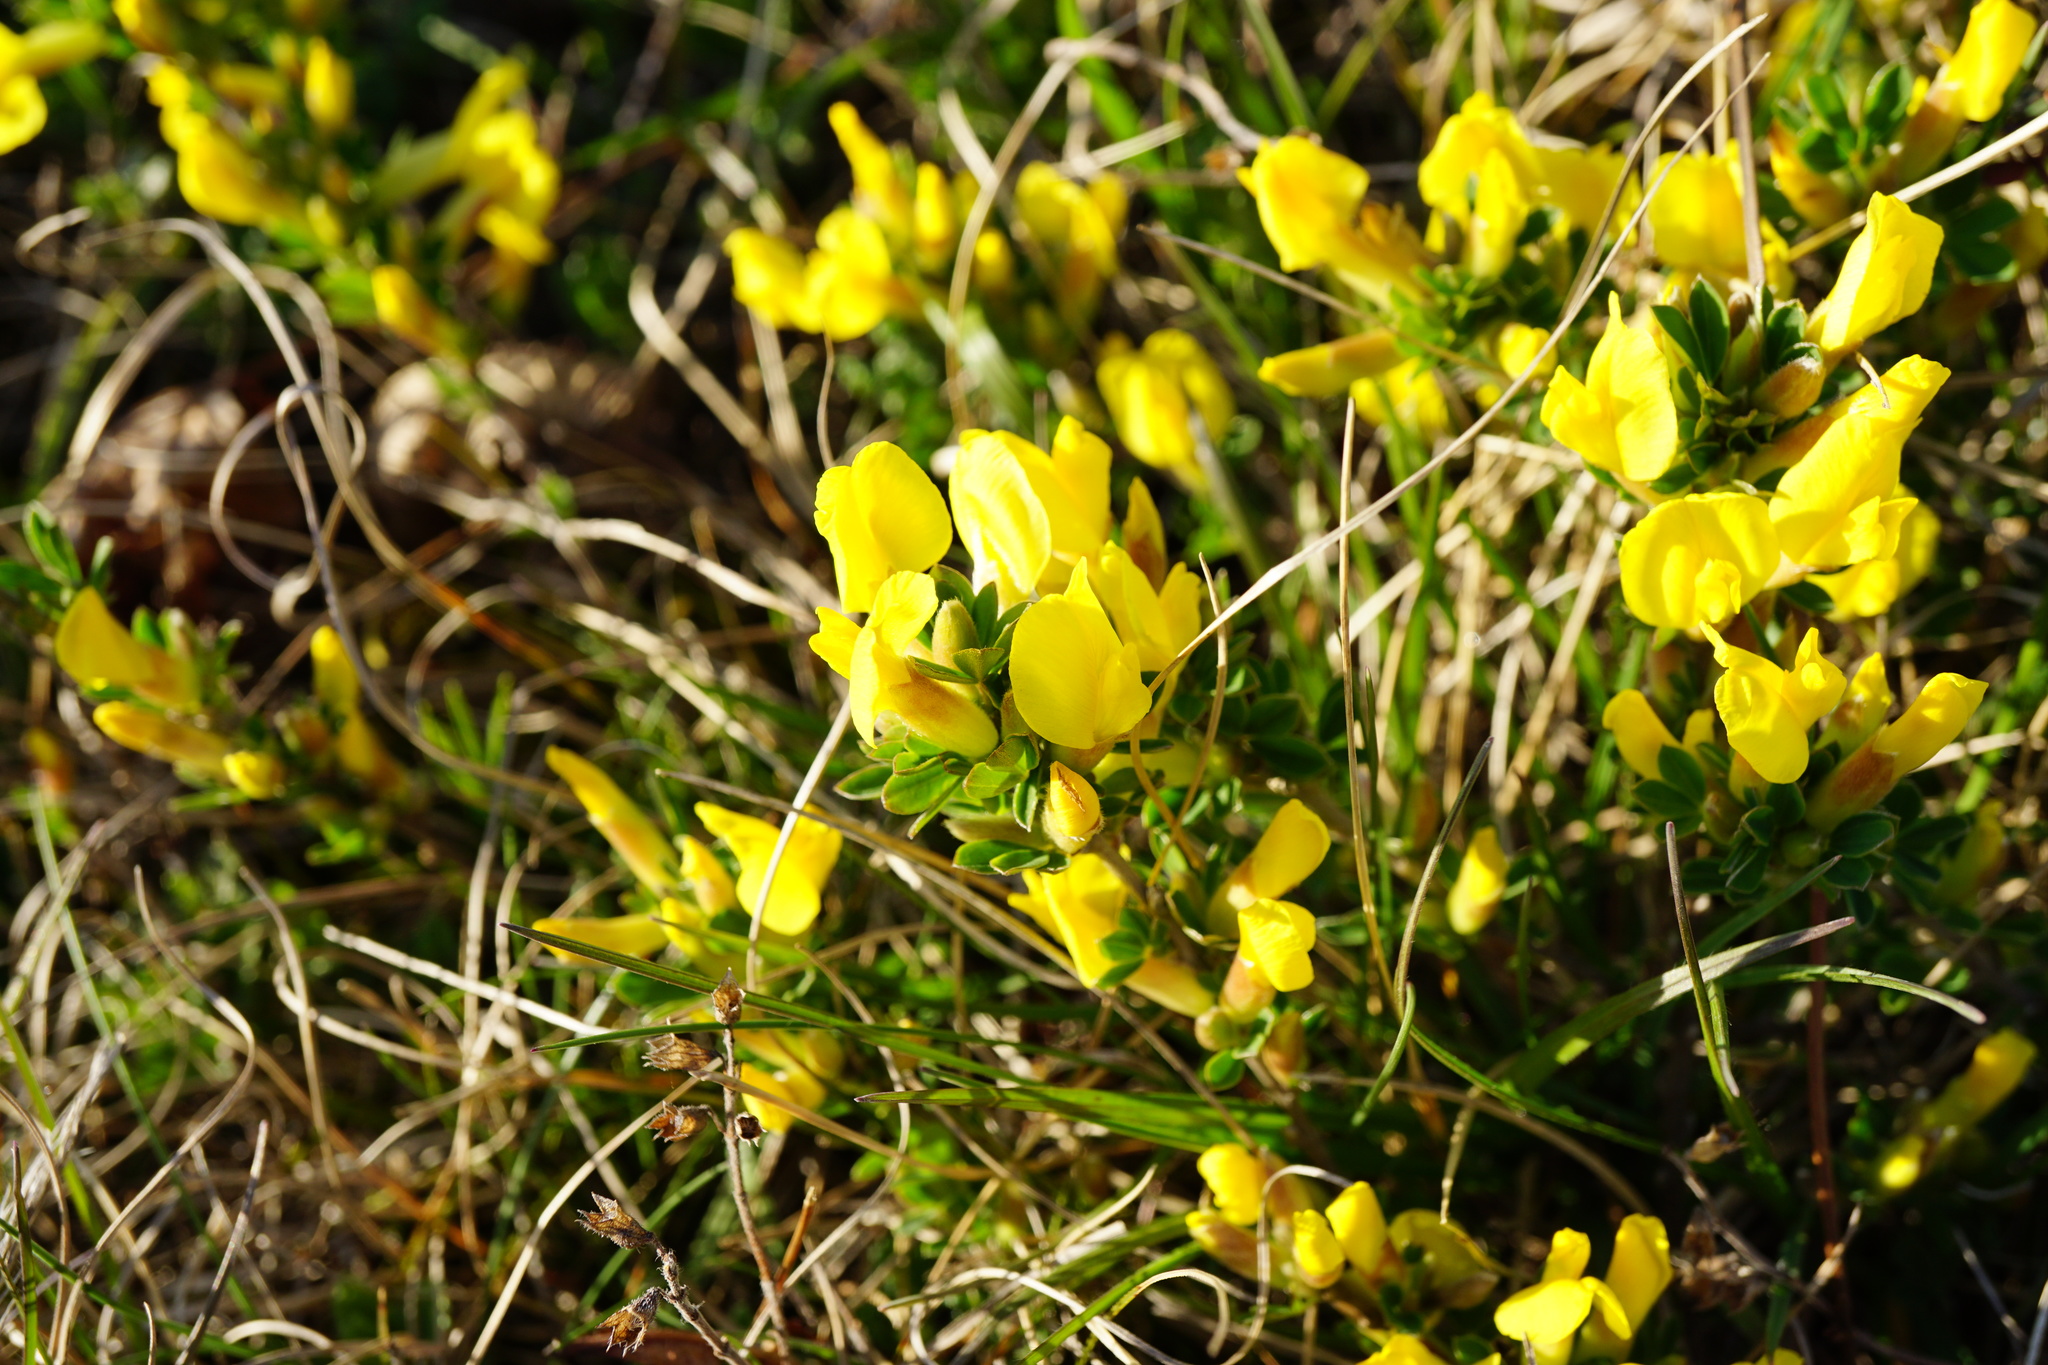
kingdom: Plantae
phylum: Tracheophyta
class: Magnoliopsida
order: Fabales
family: Fabaceae
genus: Chamaecytisus
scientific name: Chamaecytisus ratisbonensis
